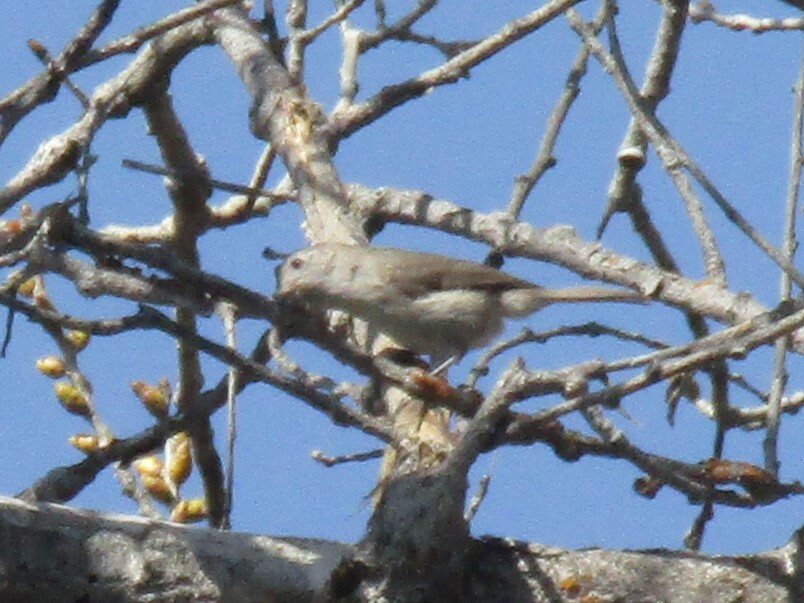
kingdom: Animalia
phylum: Chordata
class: Aves
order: Passeriformes
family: Paridae
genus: Baeolophus
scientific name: Baeolophus inornatus
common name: Oak titmouse
